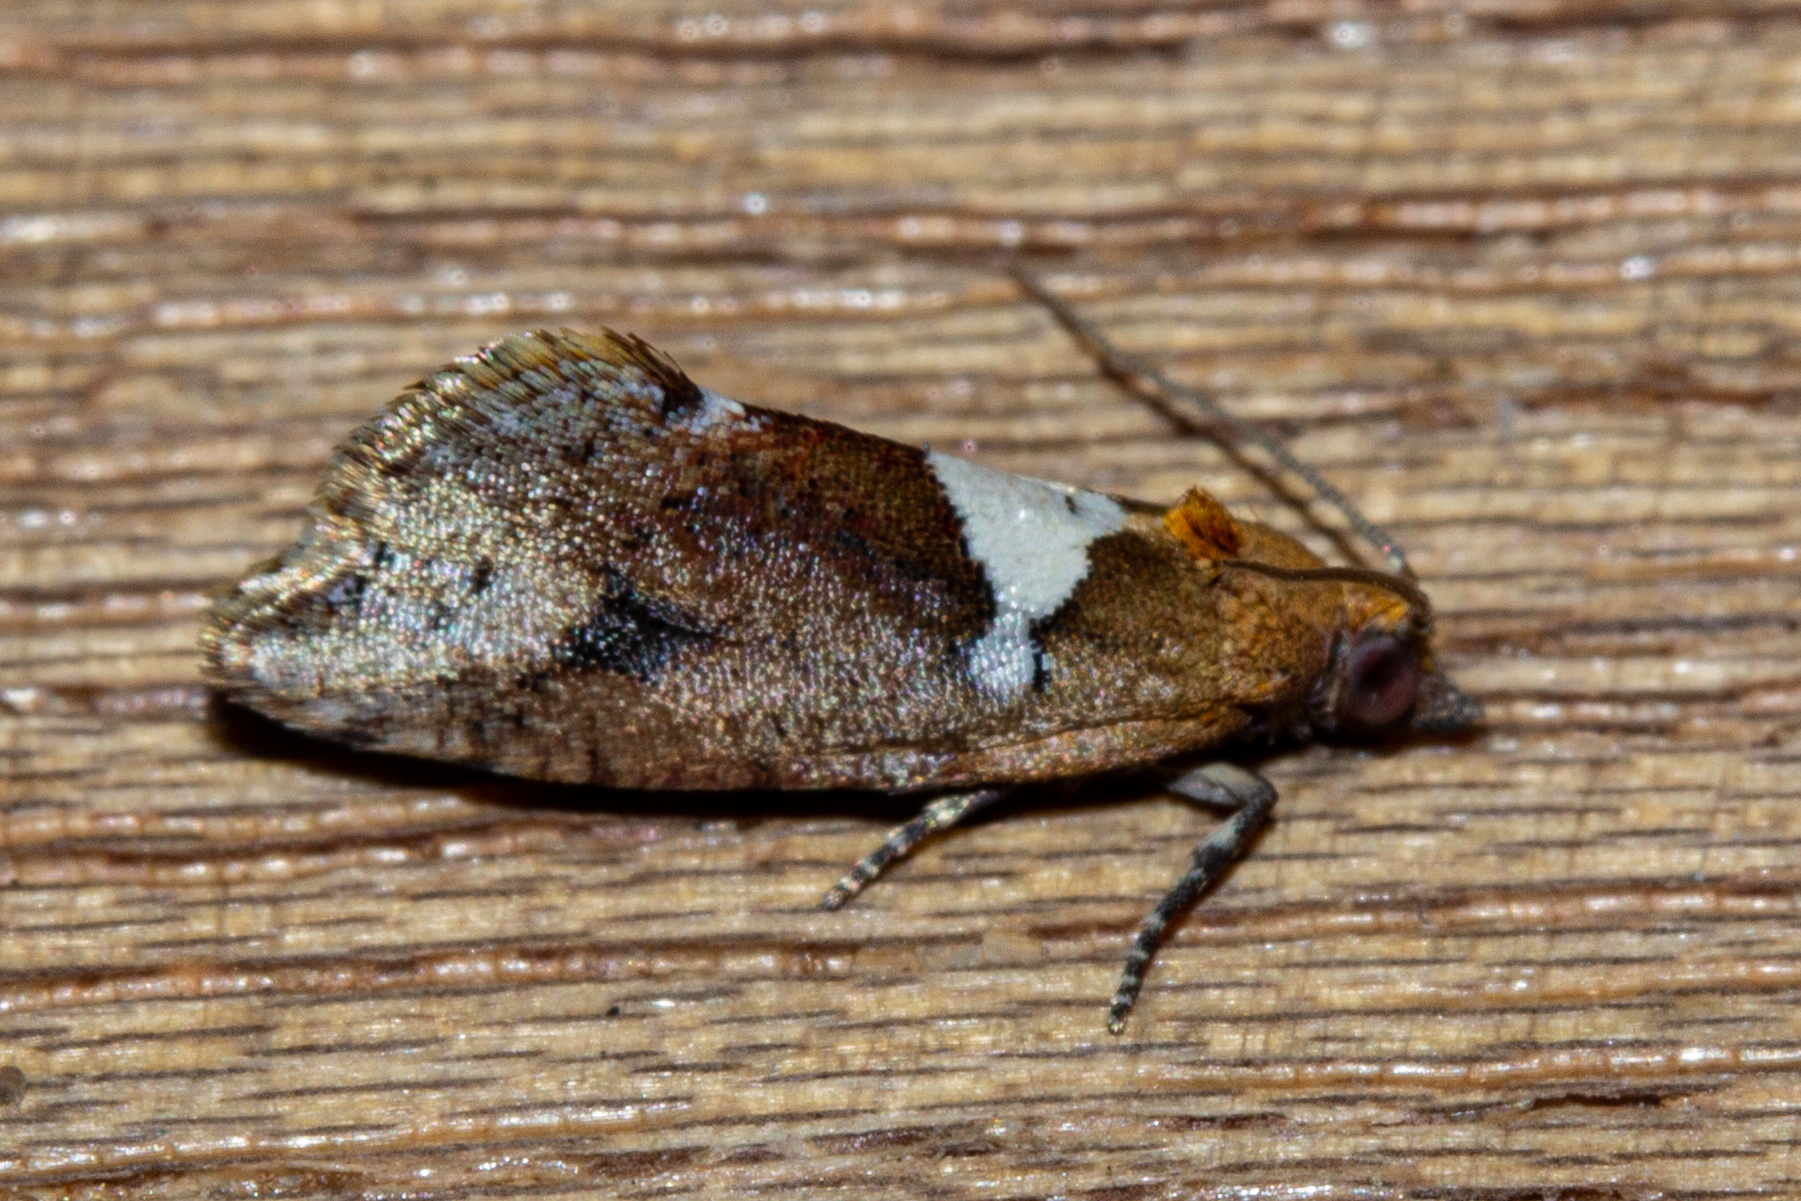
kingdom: Animalia
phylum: Arthropoda
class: Insecta
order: Lepidoptera
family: Tortricidae
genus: Pyrgotis
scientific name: Pyrgotis pyramidias
